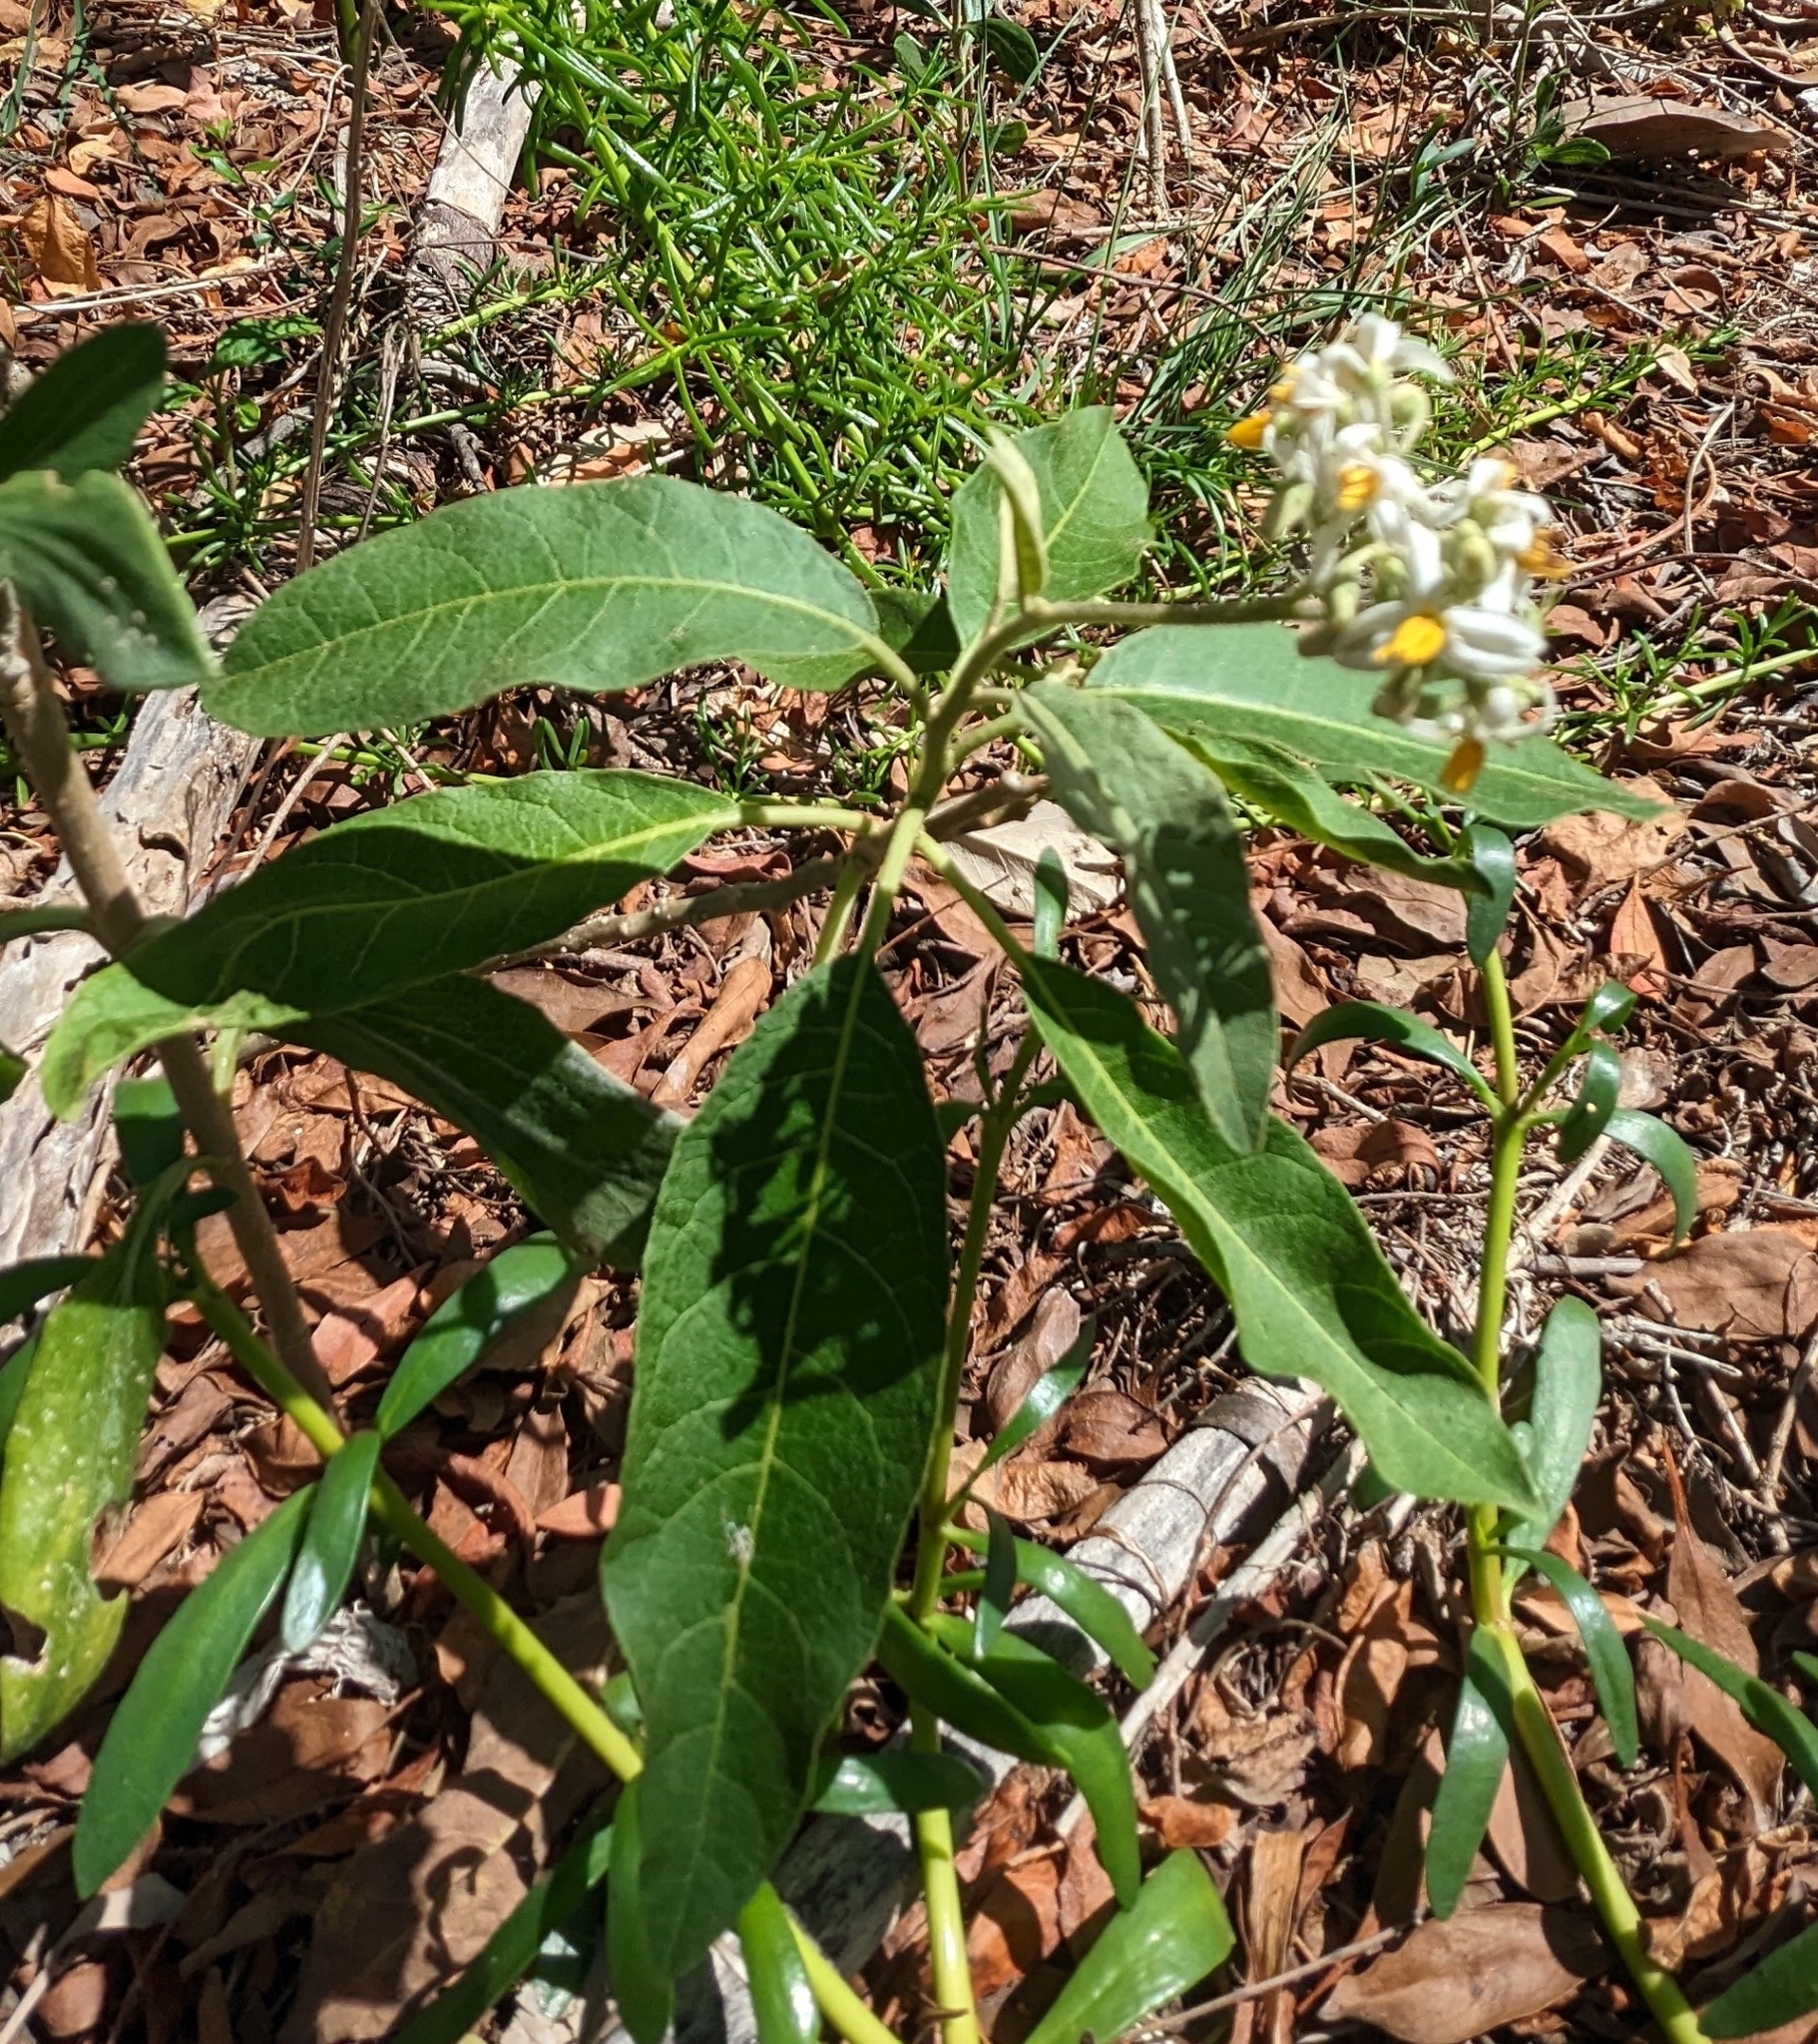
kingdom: Plantae
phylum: Tracheophyta
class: Magnoliopsida
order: Solanales
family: Solanaceae
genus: Solanum
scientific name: Solanum donianum
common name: Mullein nightshade
